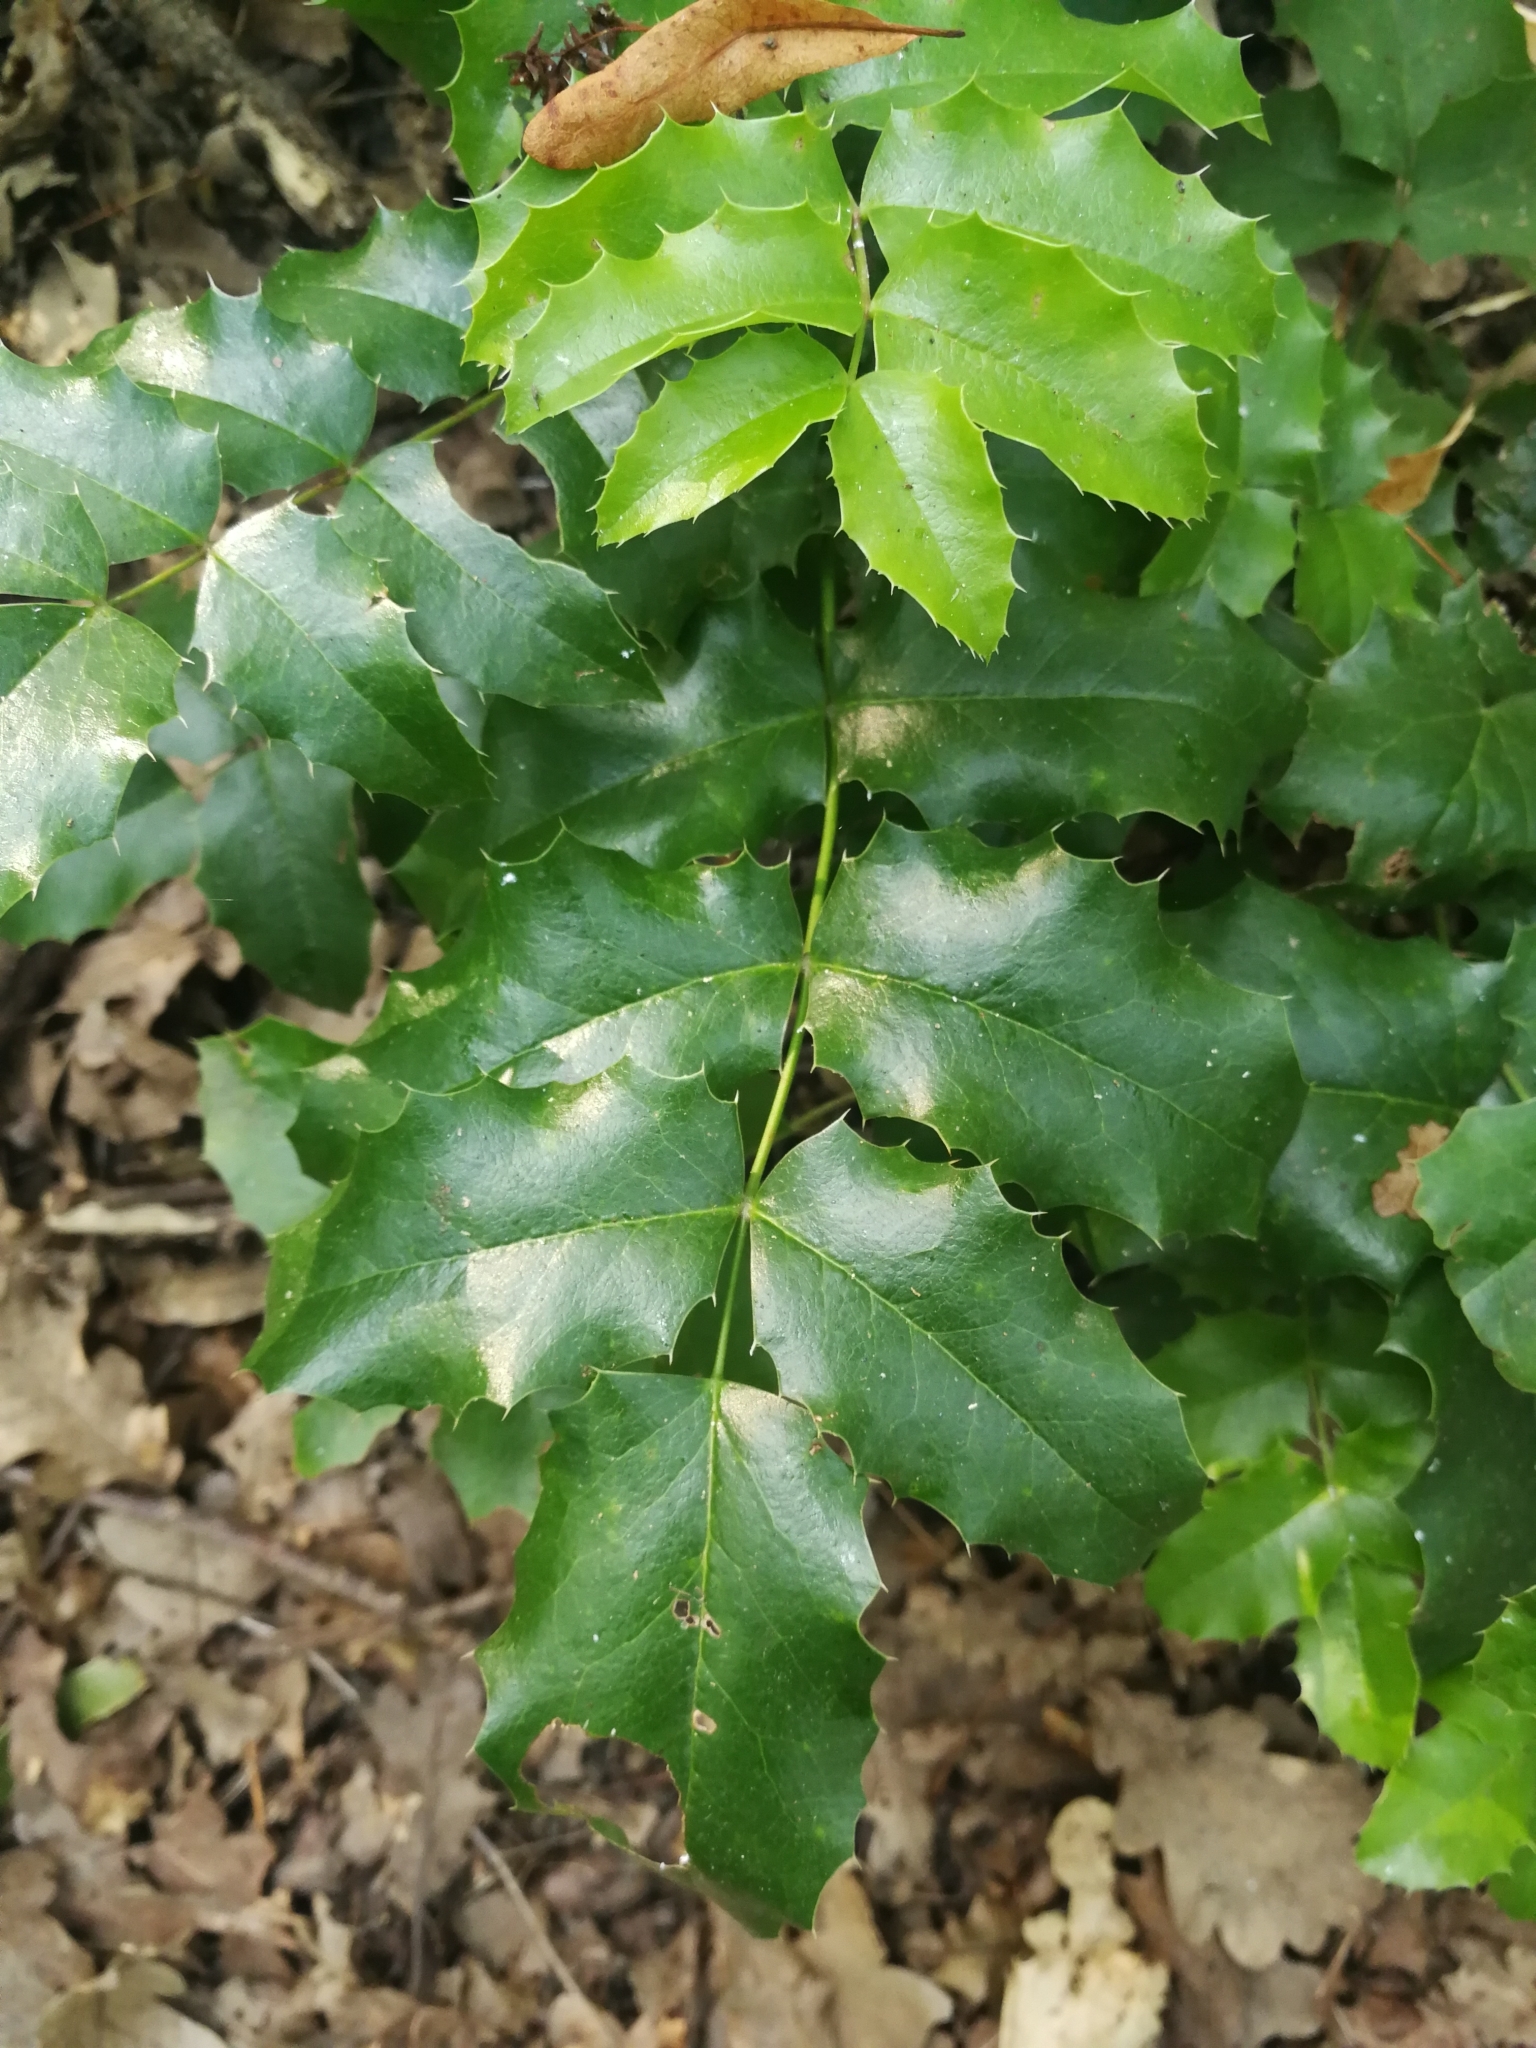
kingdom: Plantae
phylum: Tracheophyta
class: Magnoliopsida
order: Ranunculales
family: Berberidaceae
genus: Mahonia
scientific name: Mahonia aquifolium
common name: Oregon-grape
